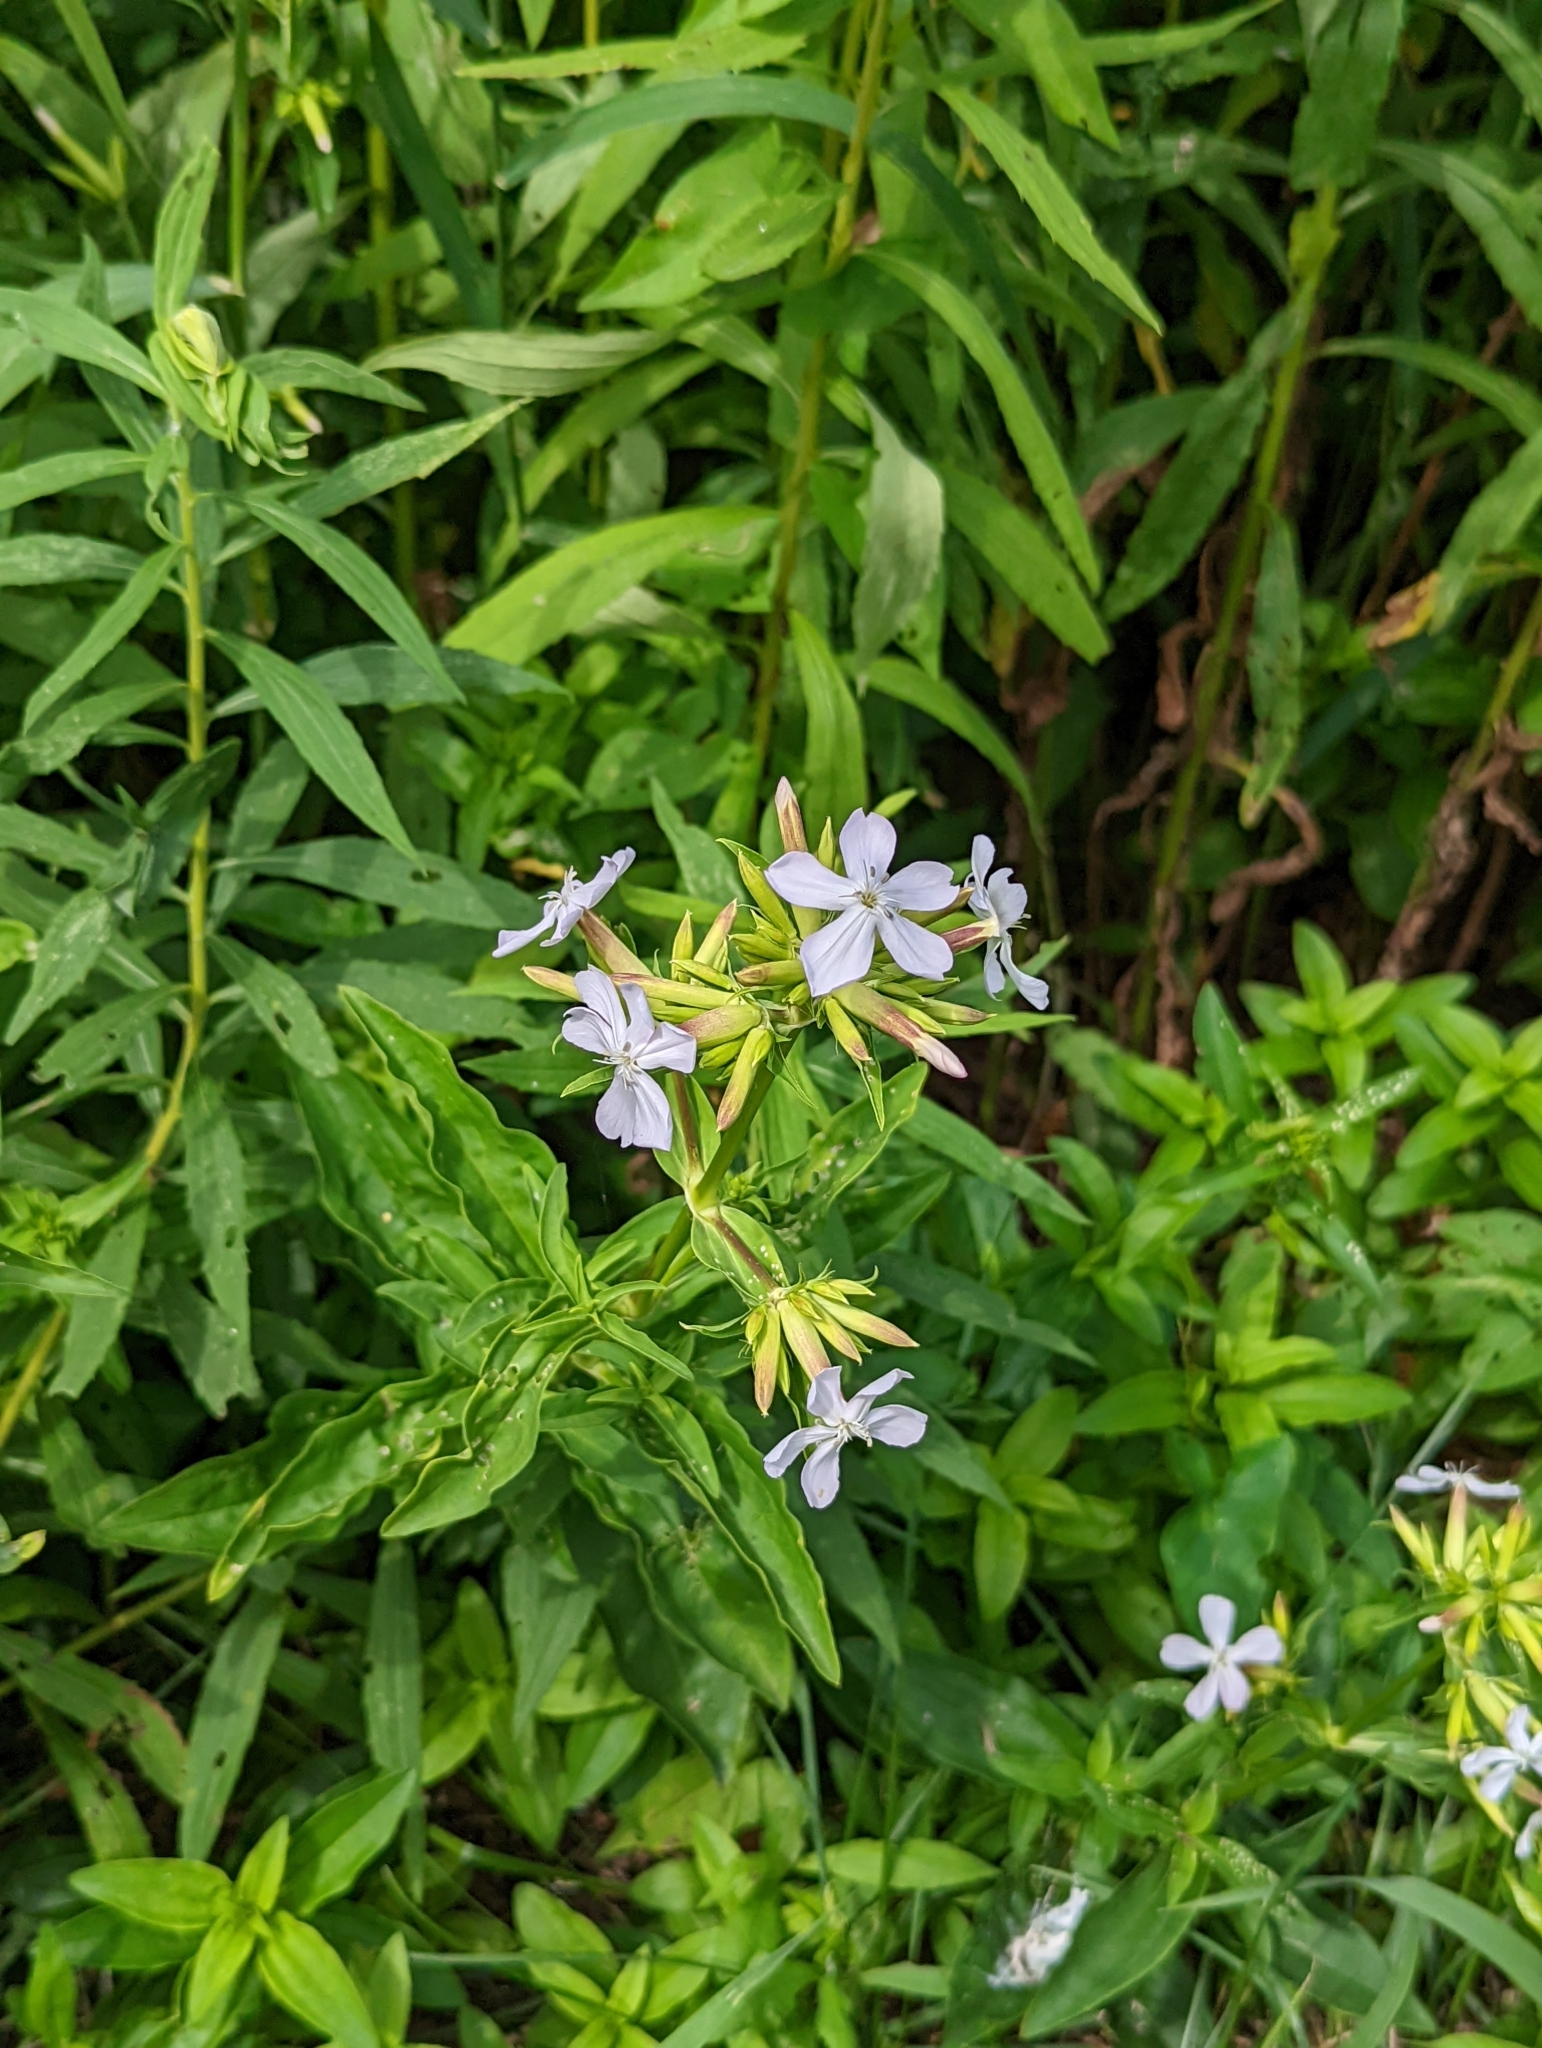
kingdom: Plantae
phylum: Tracheophyta
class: Magnoliopsida
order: Caryophyllales
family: Caryophyllaceae
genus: Saponaria
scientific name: Saponaria officinalis
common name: Soapwort
